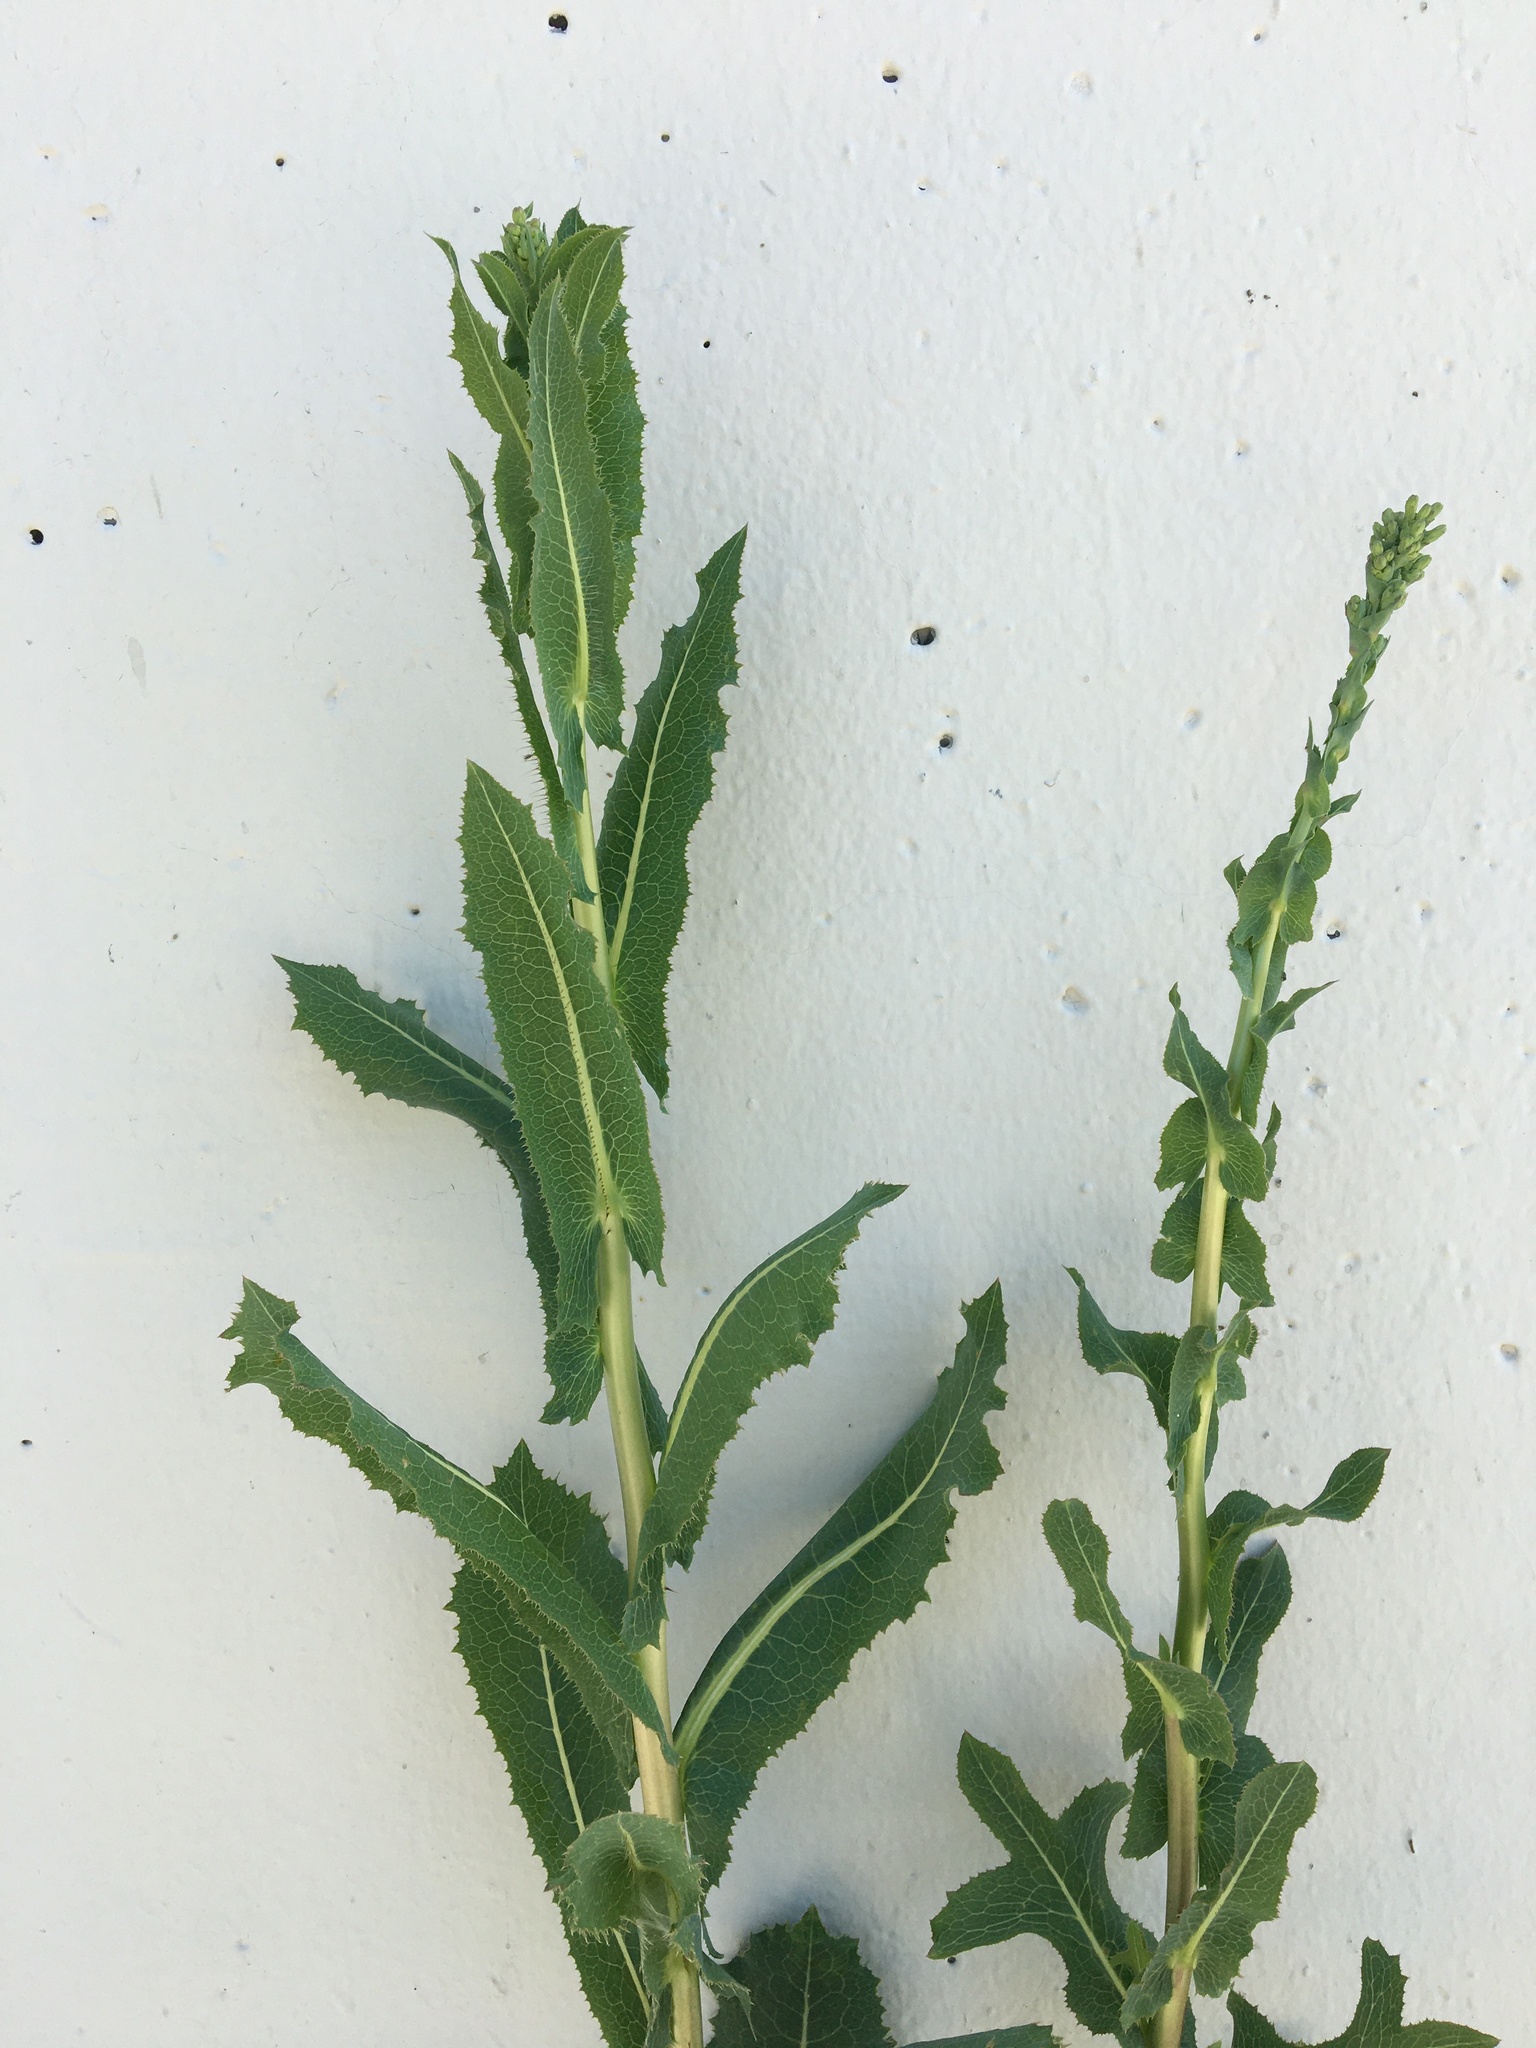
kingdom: Plantae
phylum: Tracheophyta
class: Magnoliopsida
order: Asterales
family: Asteraceae
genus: Lactuca
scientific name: Lactuca serriola
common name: Prickly lettuce
